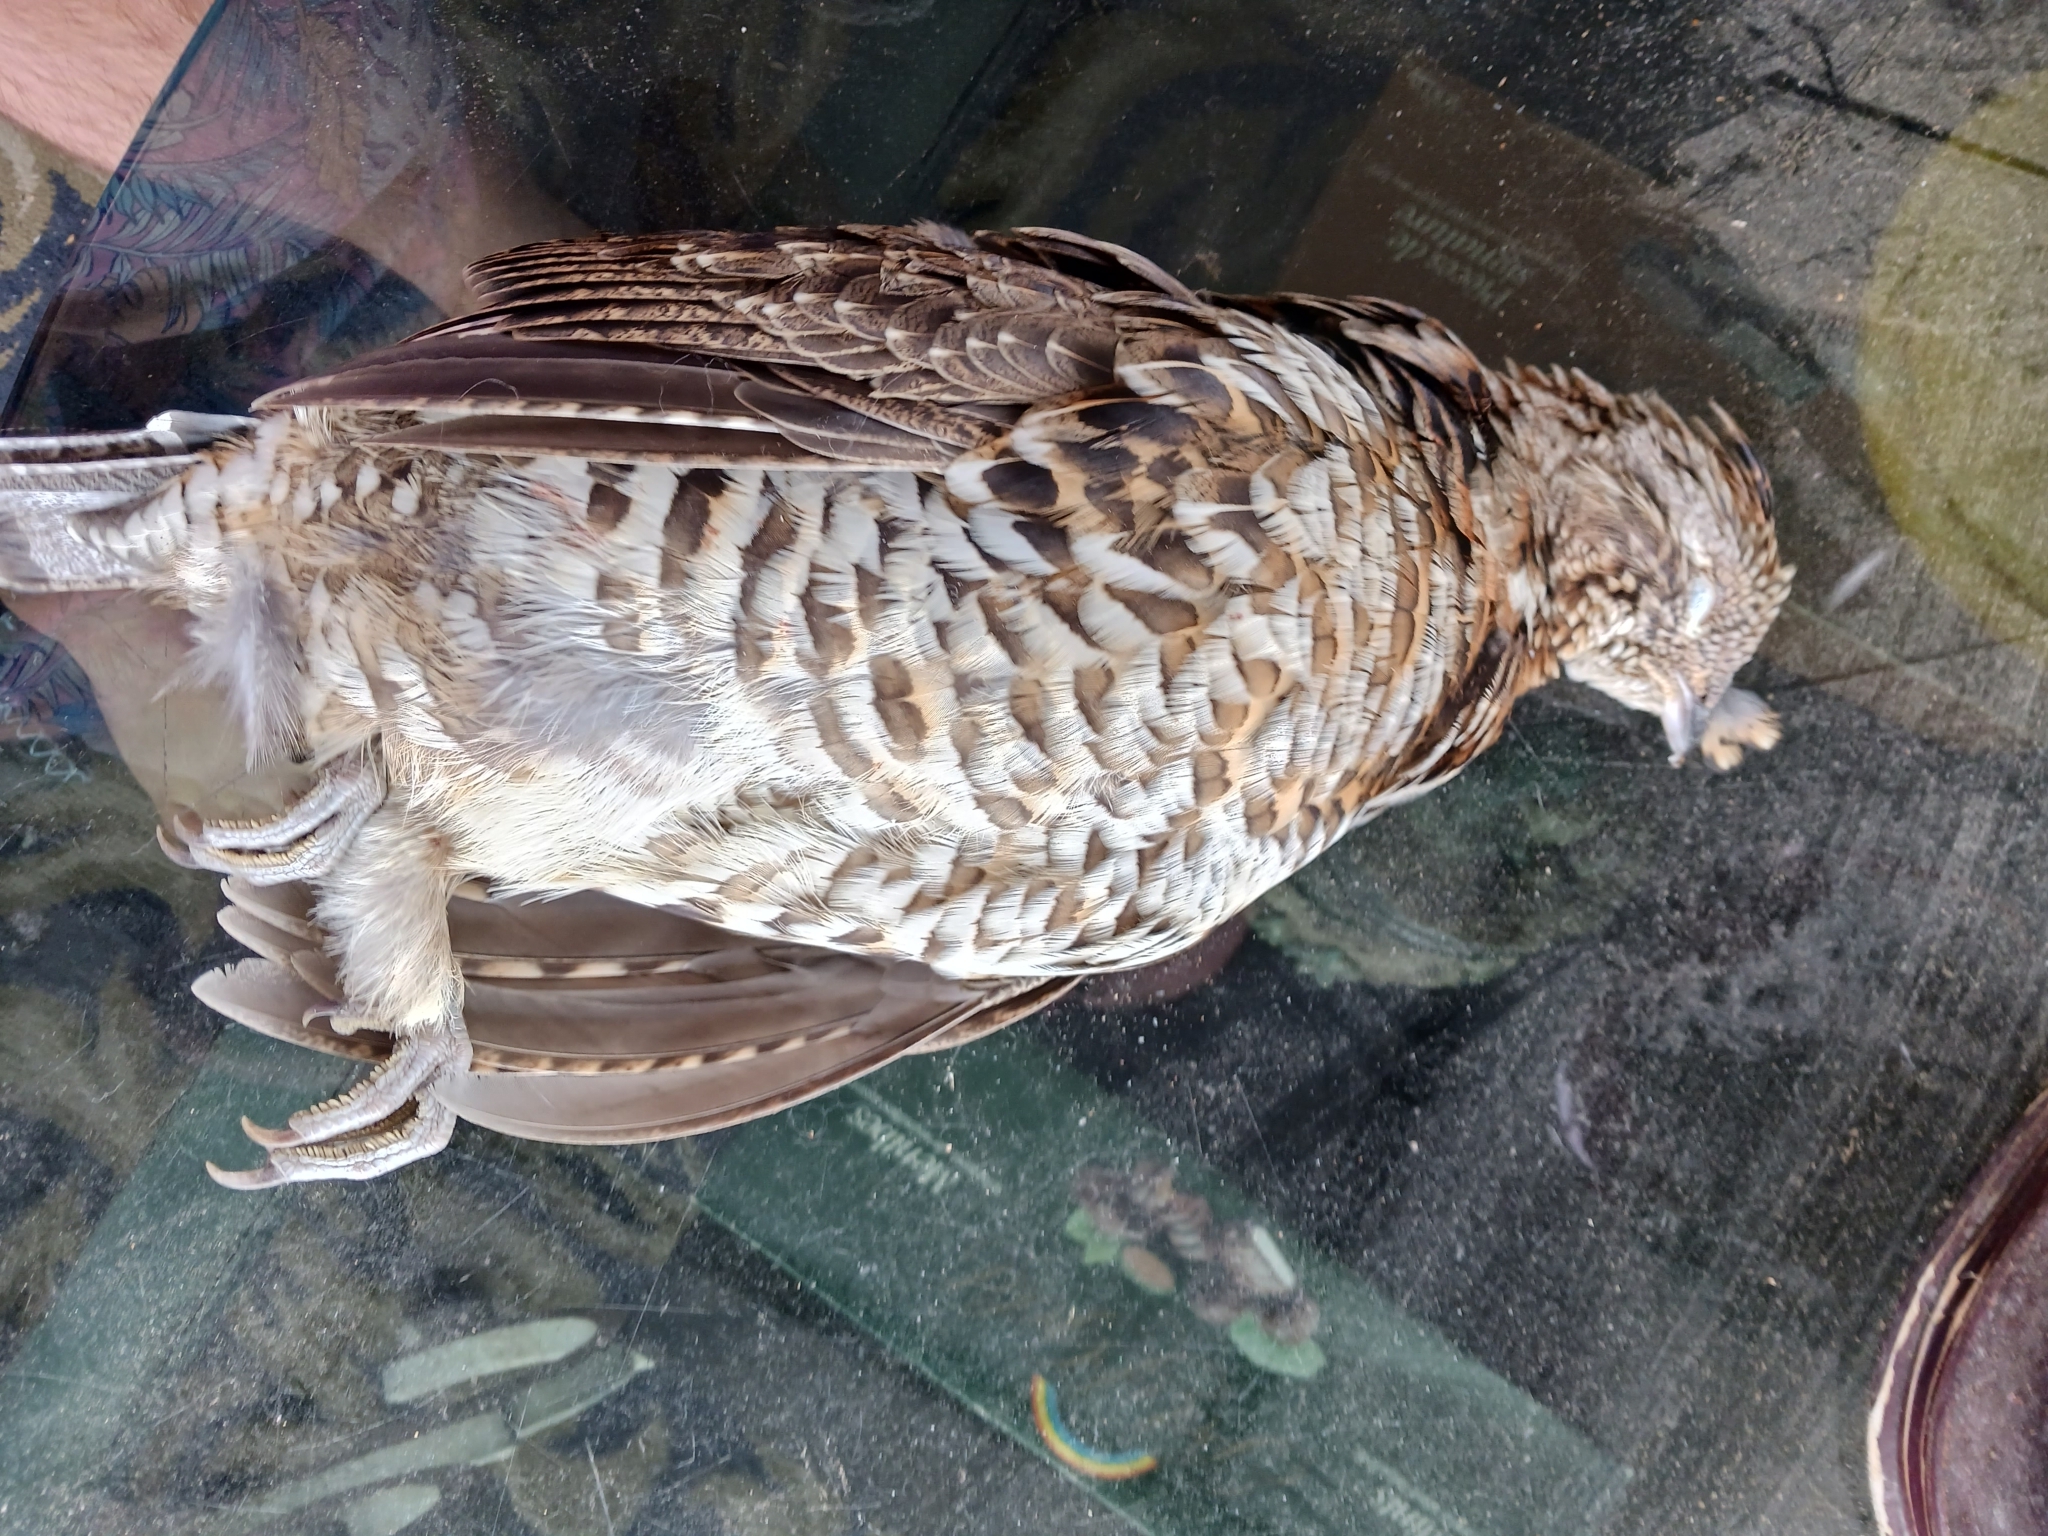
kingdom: Animalia
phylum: Chordata
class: Aves
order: Galliformes
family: Phasianidae
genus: Bonasa
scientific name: Bonasa umbellus
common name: Ruffed grouse
